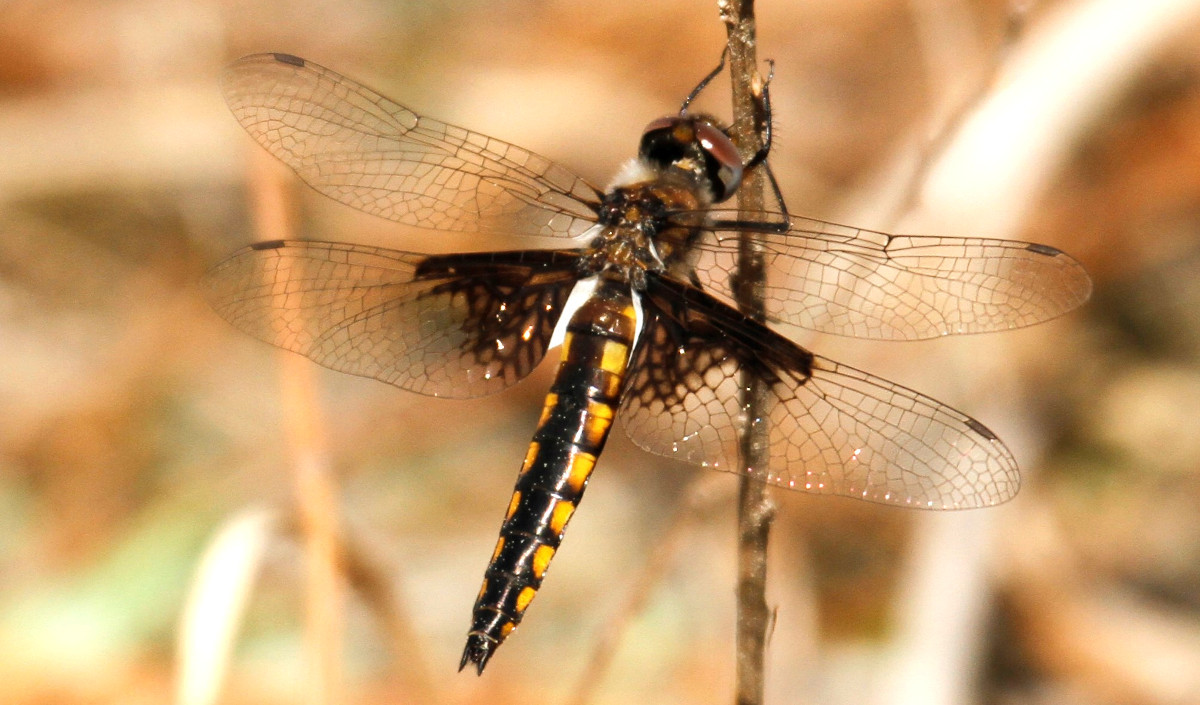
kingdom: Animalia
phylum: Arthropoda
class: Insecta
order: Odonata
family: Corduliidae
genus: Epitheca
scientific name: Epitheca semiaquea
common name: Mantled baskettail
